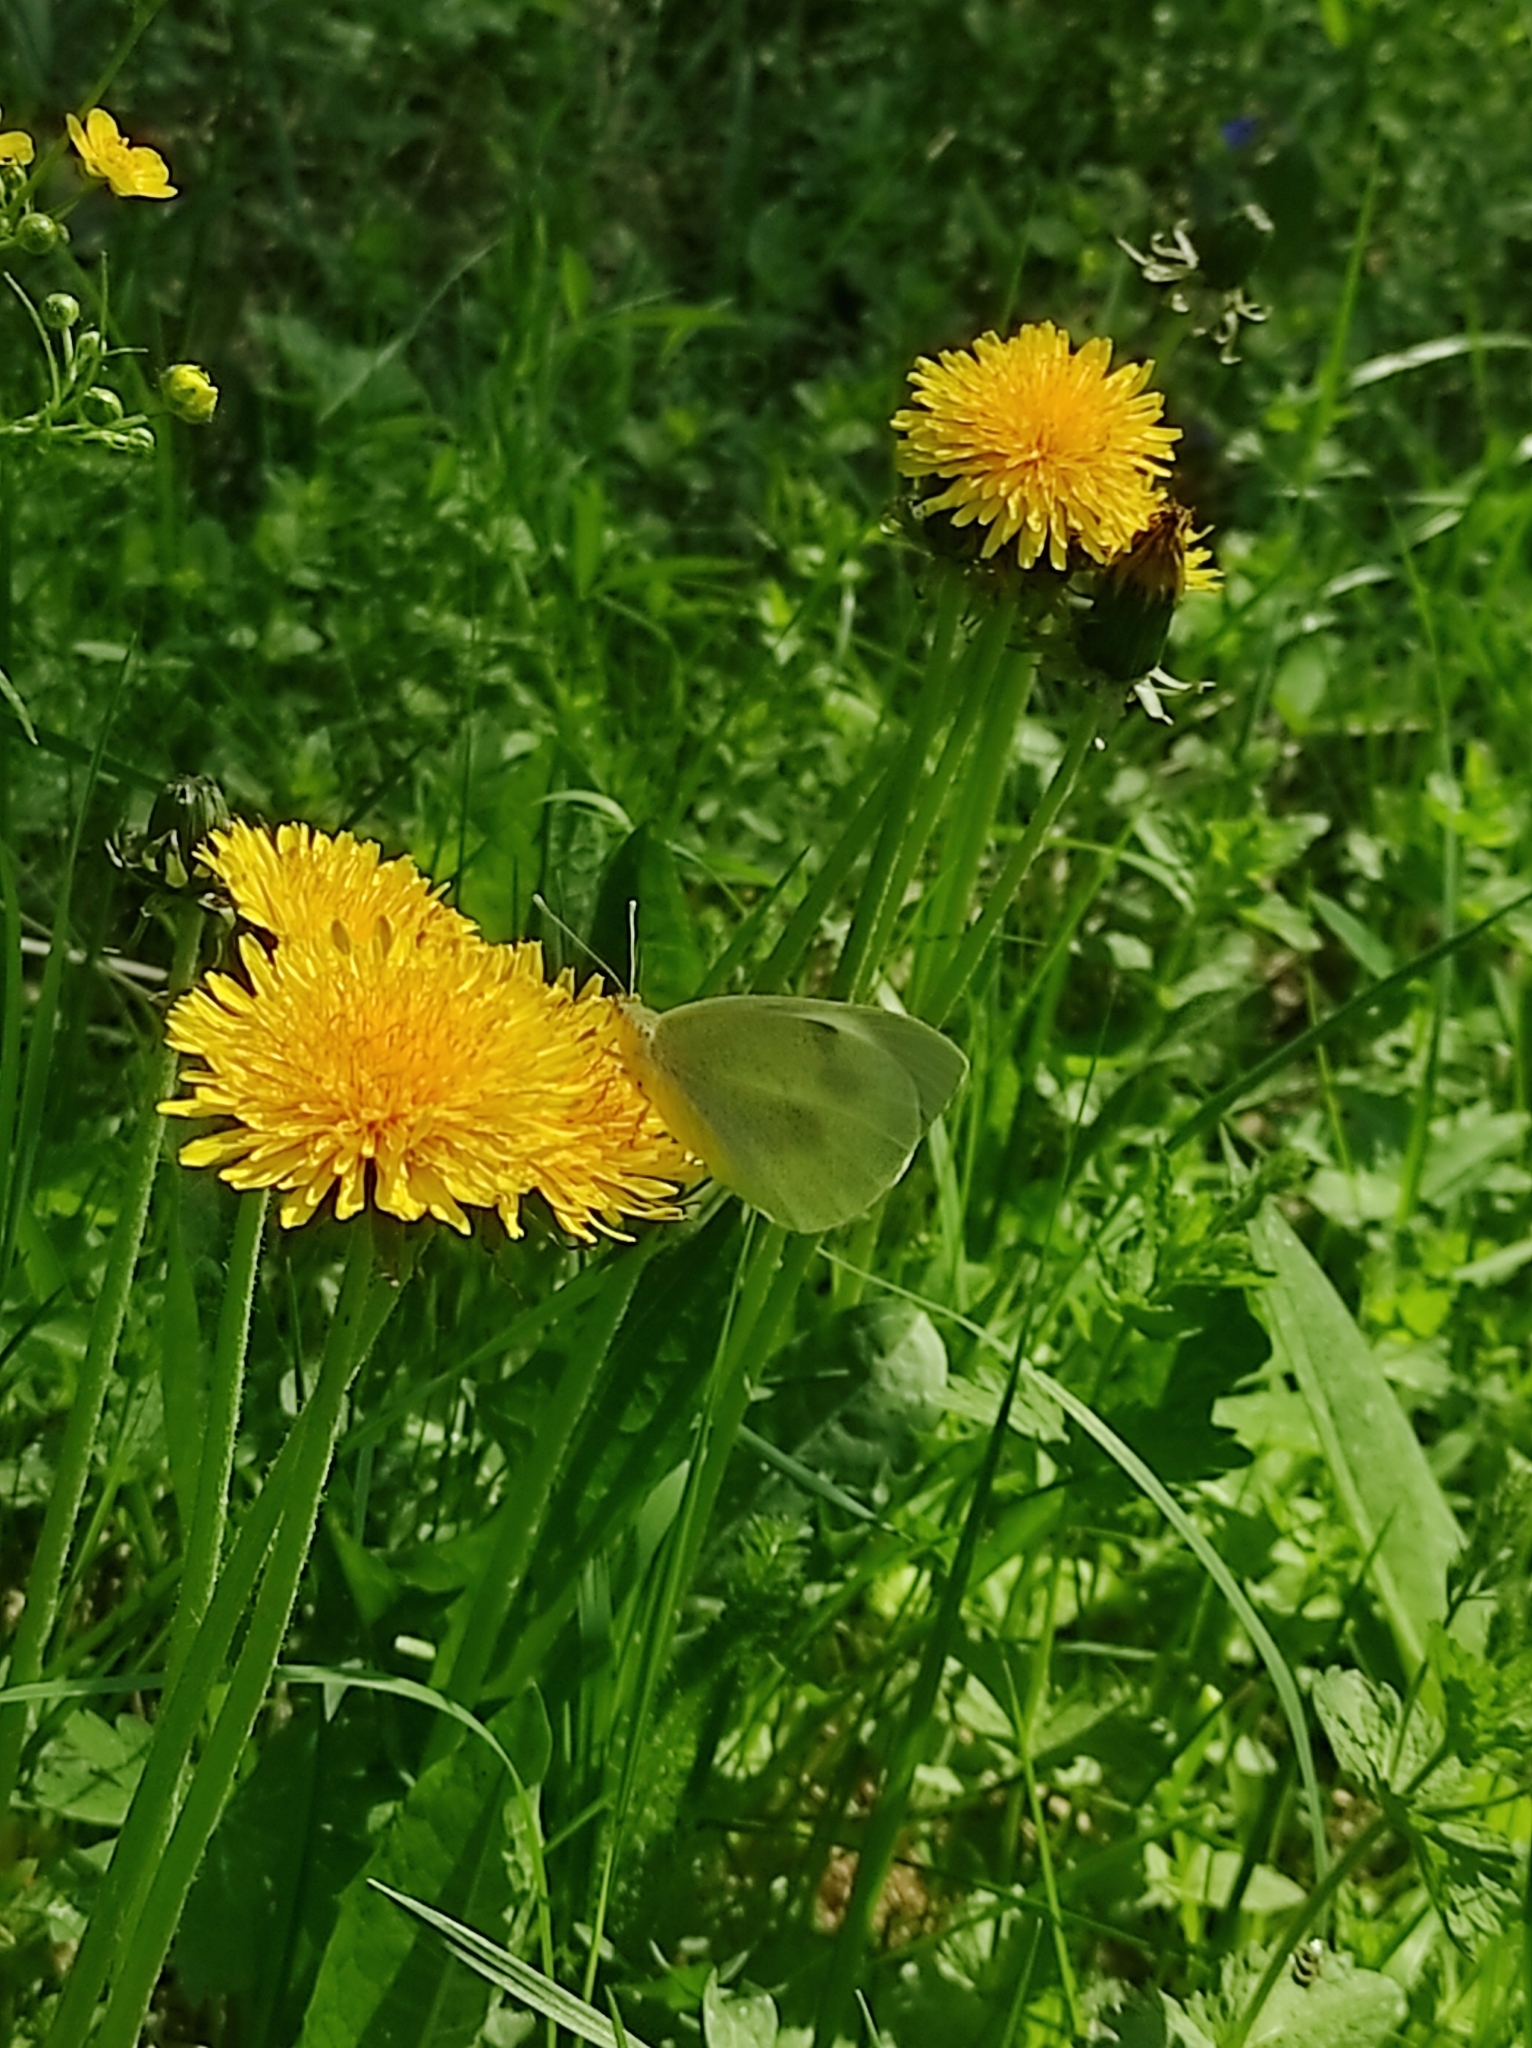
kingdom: Plantae
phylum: Tracheophyta
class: Magnoliopsida
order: Asterales
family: Asteraceae
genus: Taraxacum
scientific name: Taraxacum officinale
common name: Common dandelion
